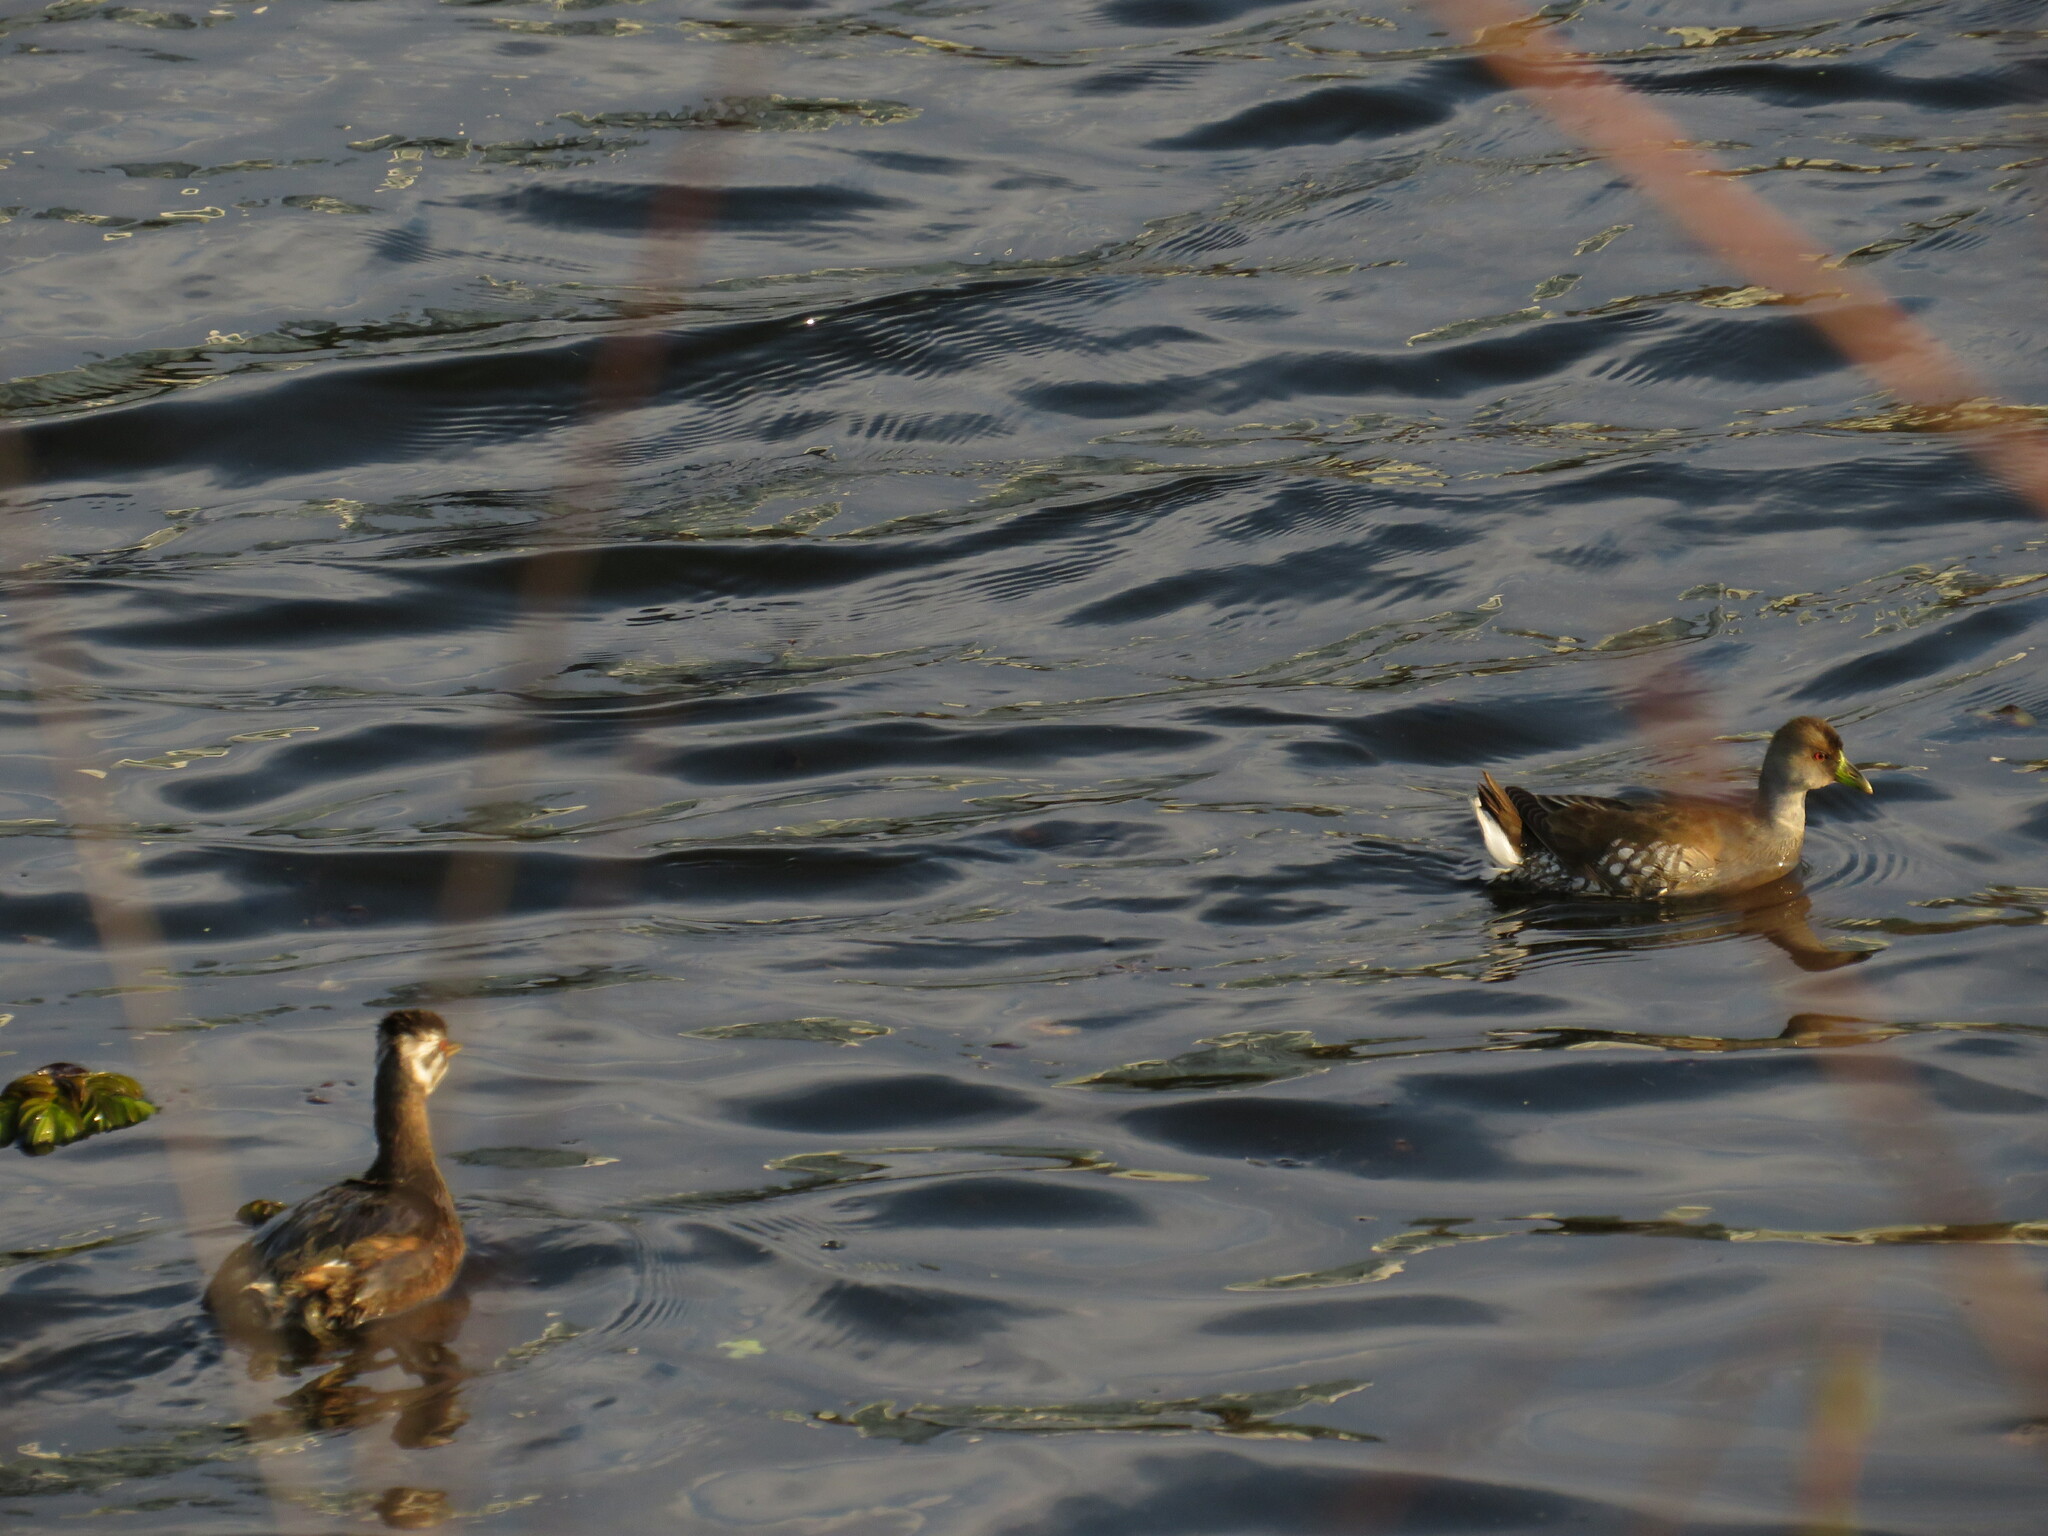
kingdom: Animalia
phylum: Chordata
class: Aves
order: Gruiformes
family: Rallidae
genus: Gallinula
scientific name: Gallinula melanops
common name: Spot-flanked gallinule
